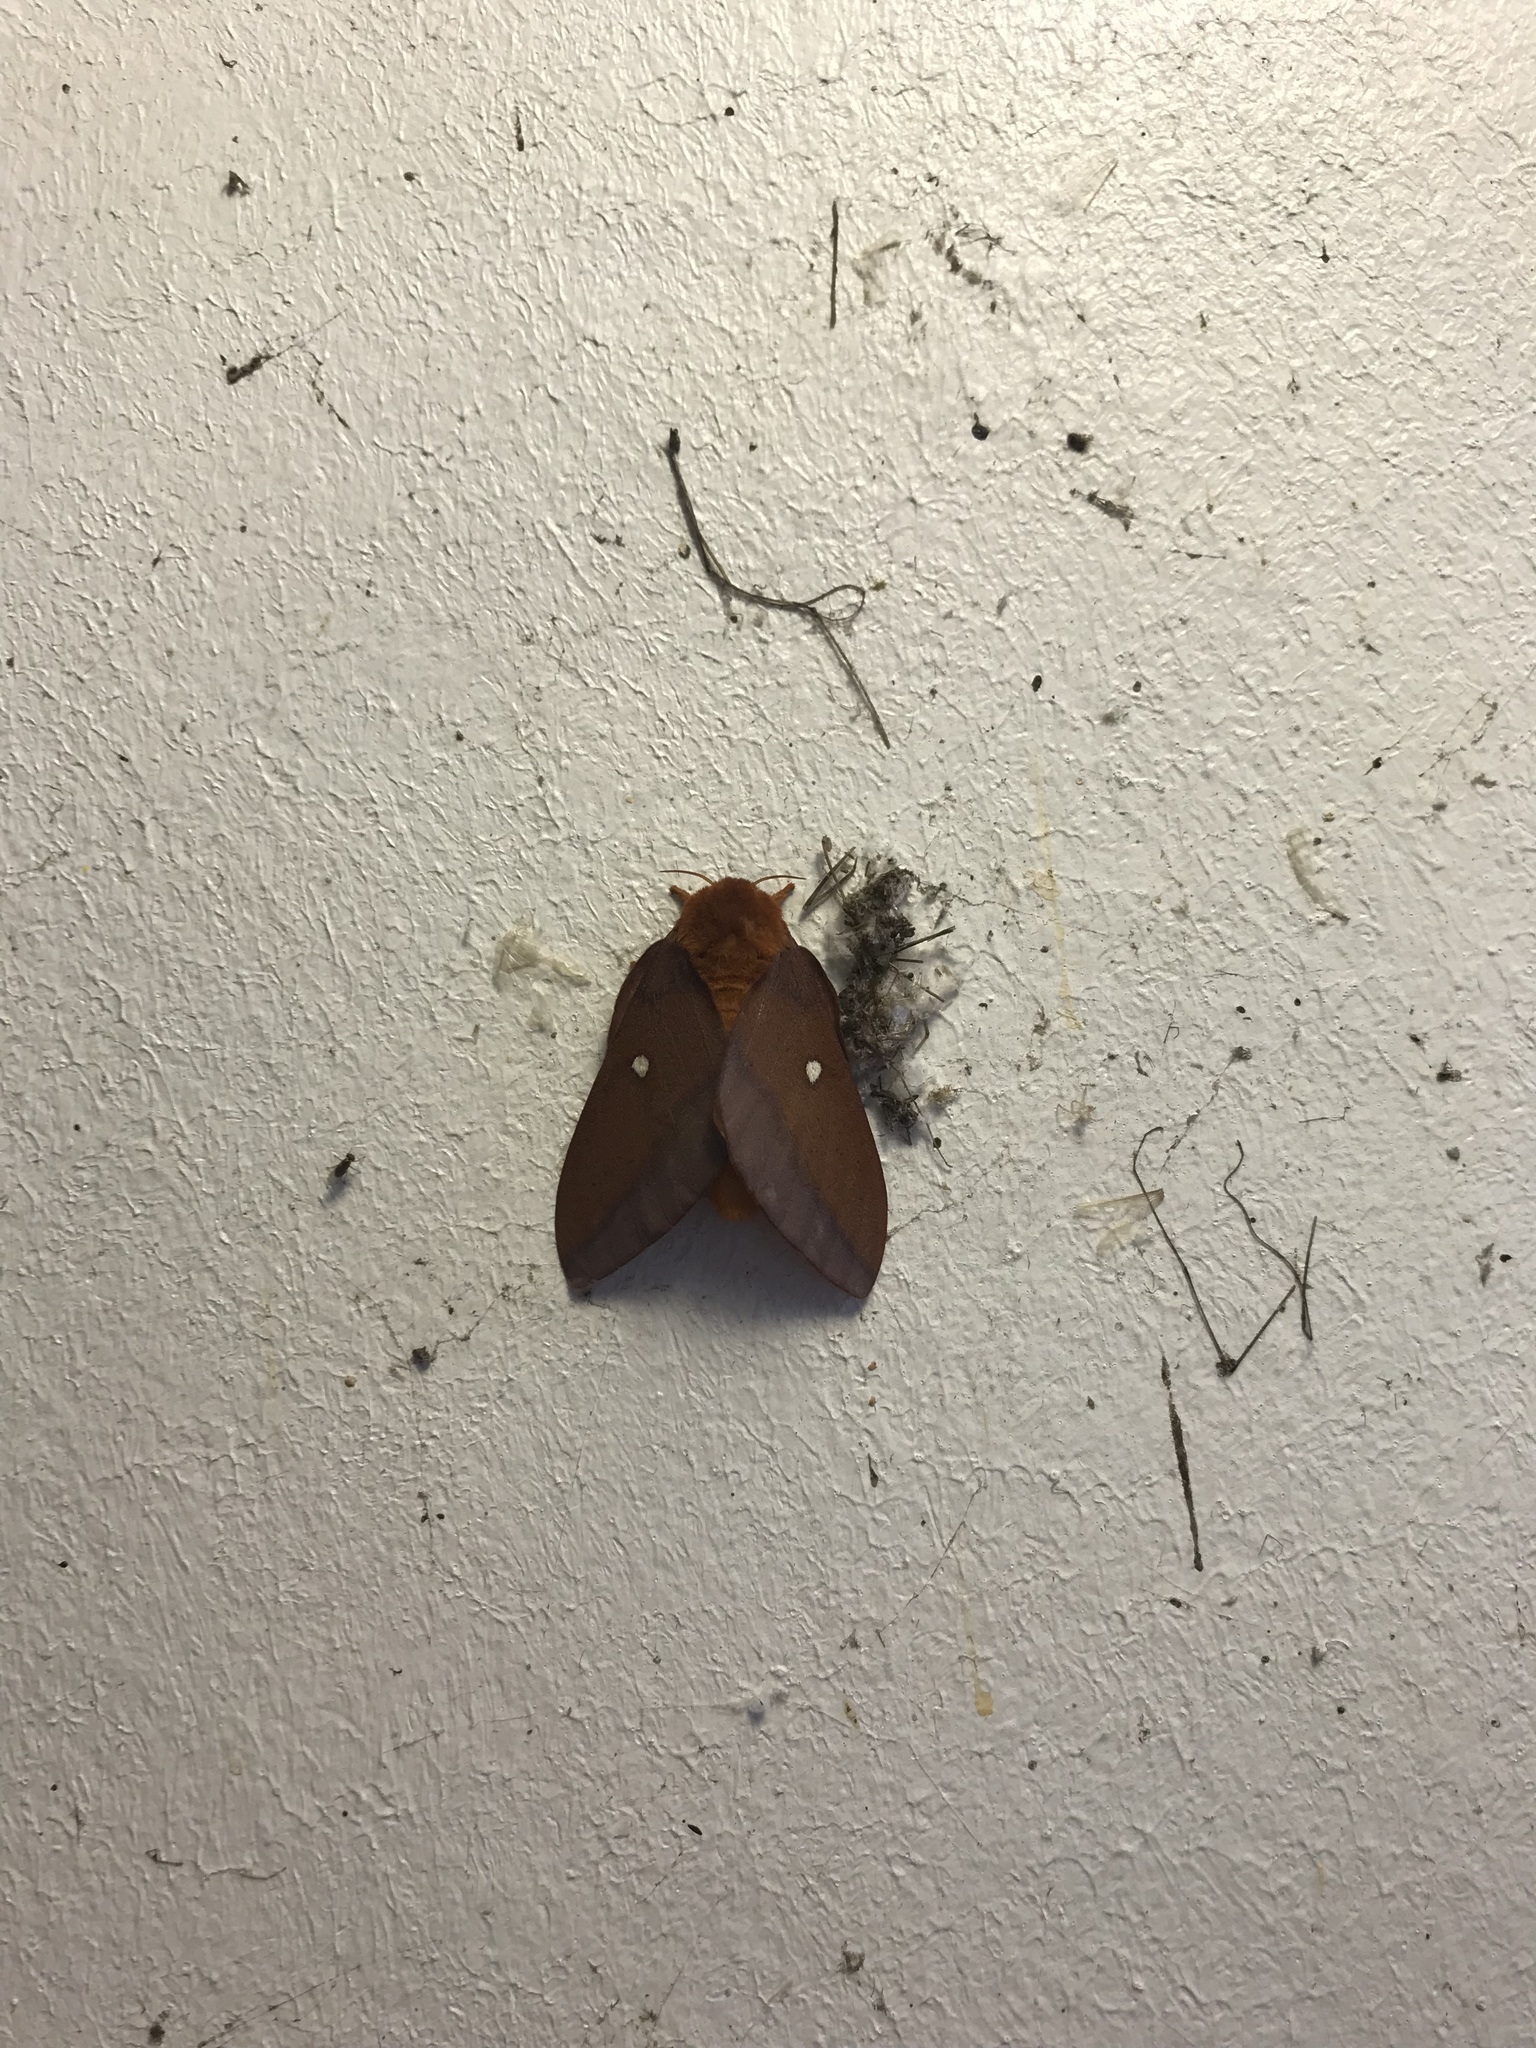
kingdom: Animalia
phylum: Arthropoda
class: Insecta
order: Lepidoptera
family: Saturniidae
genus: Anisota
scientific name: Anisota virginiensis
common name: Pink striped oakworm moth
